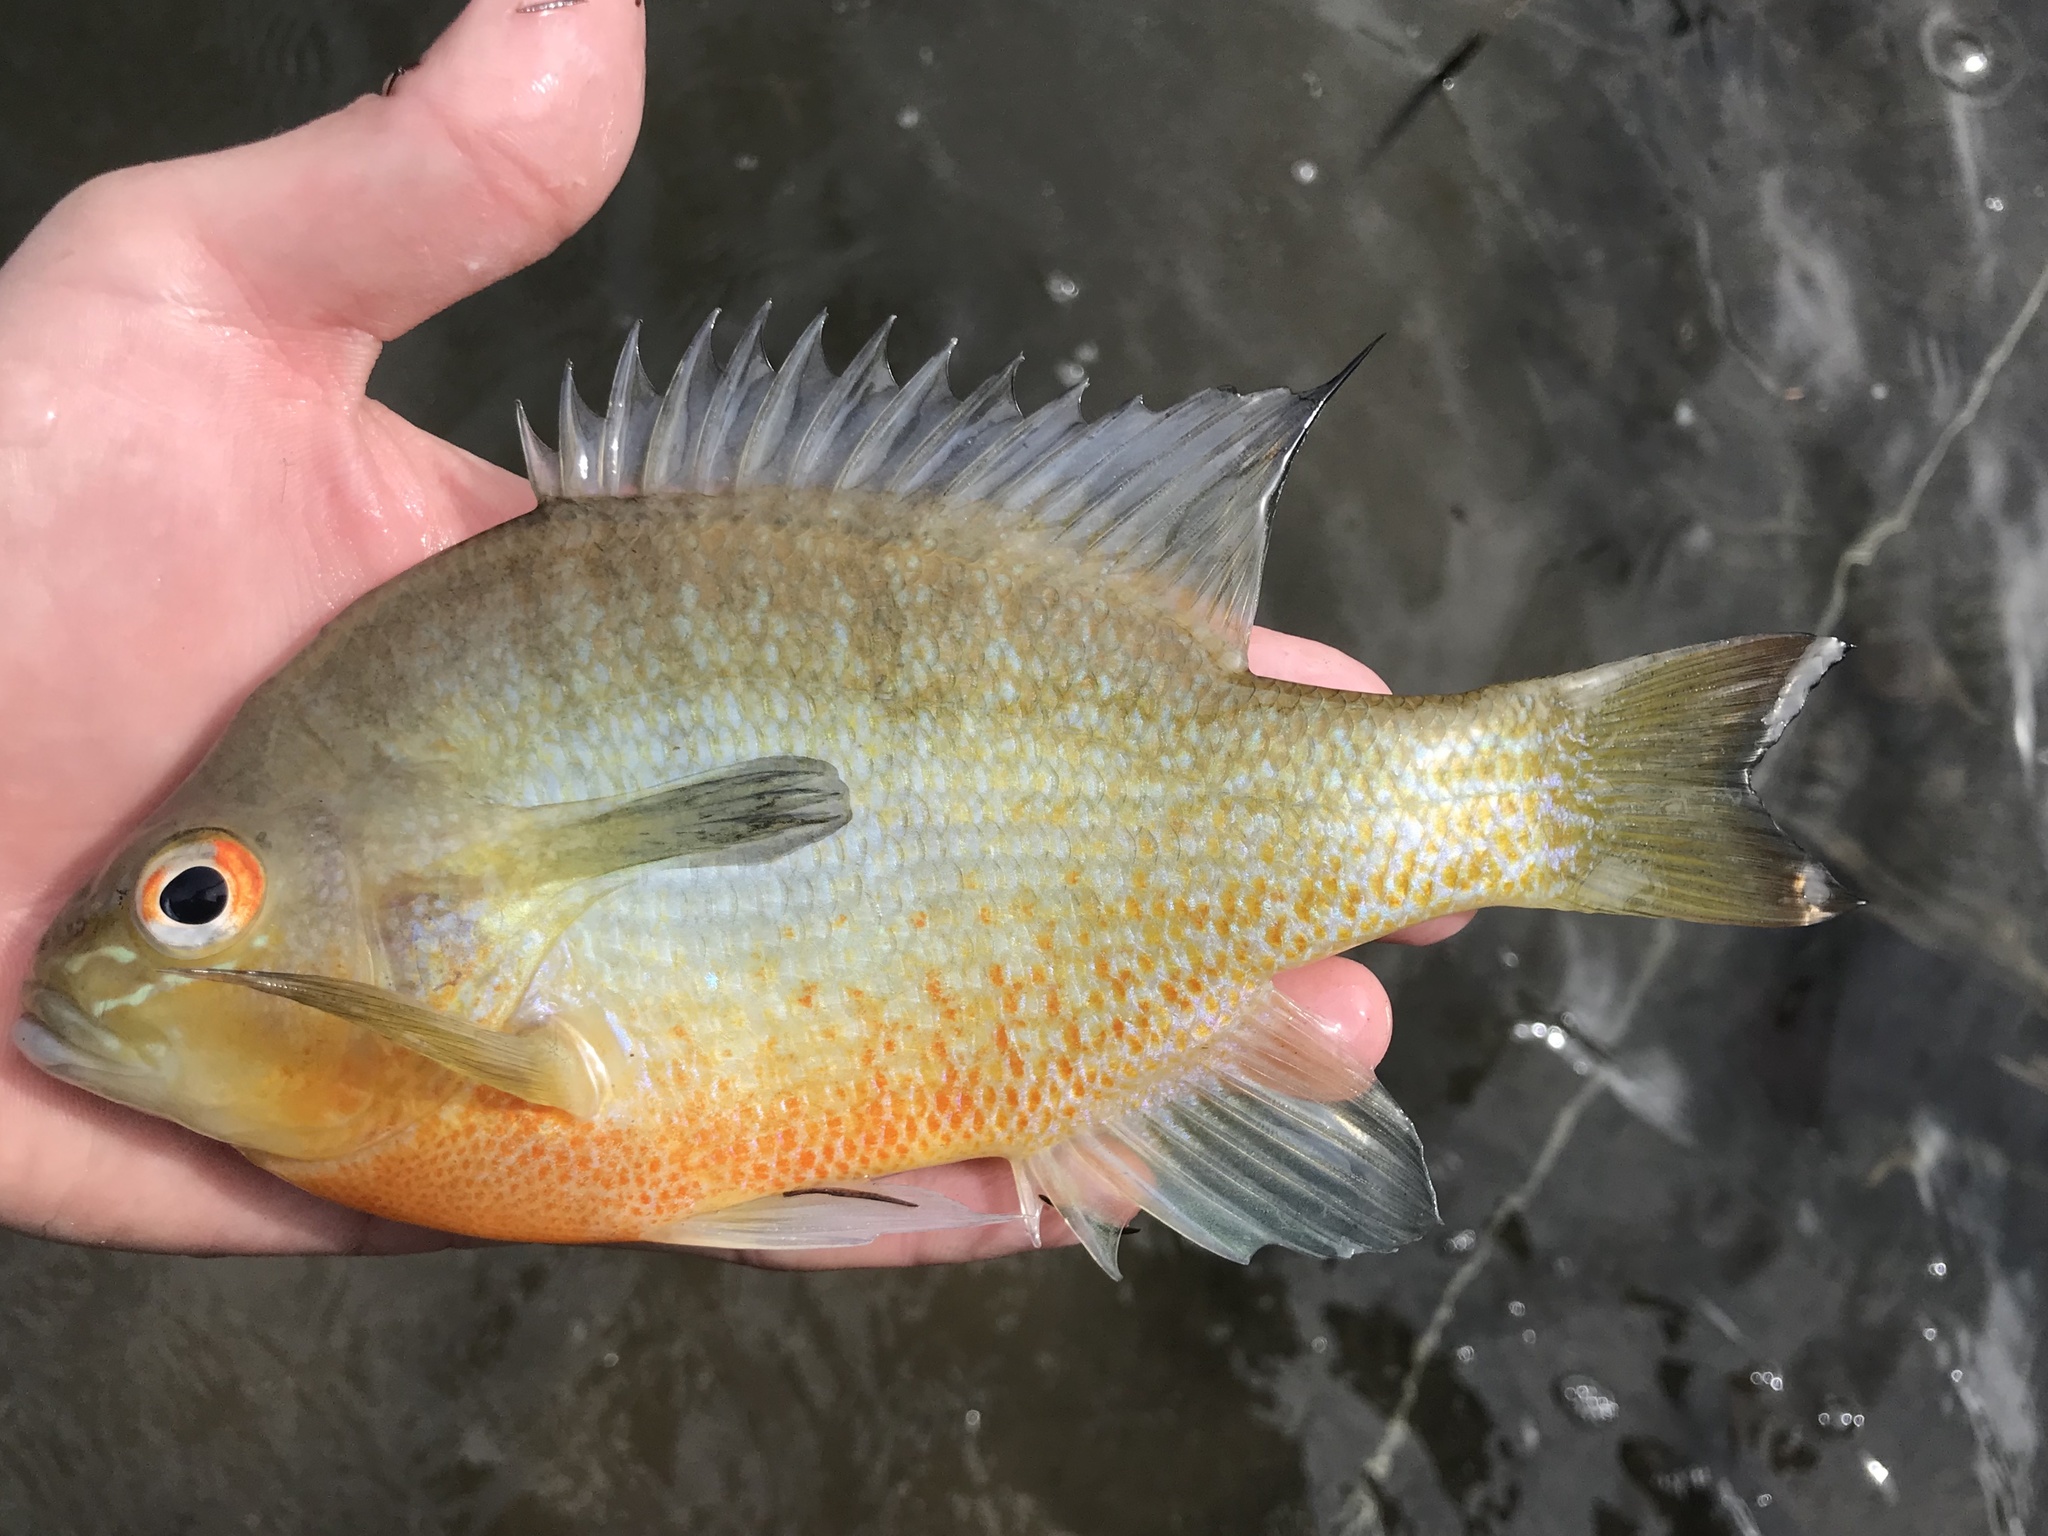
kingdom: Animalia
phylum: Chordata
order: Perciformes
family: Centrarchidae
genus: Lepomis
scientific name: Lepomis auritus
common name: Redbreast sunfish
